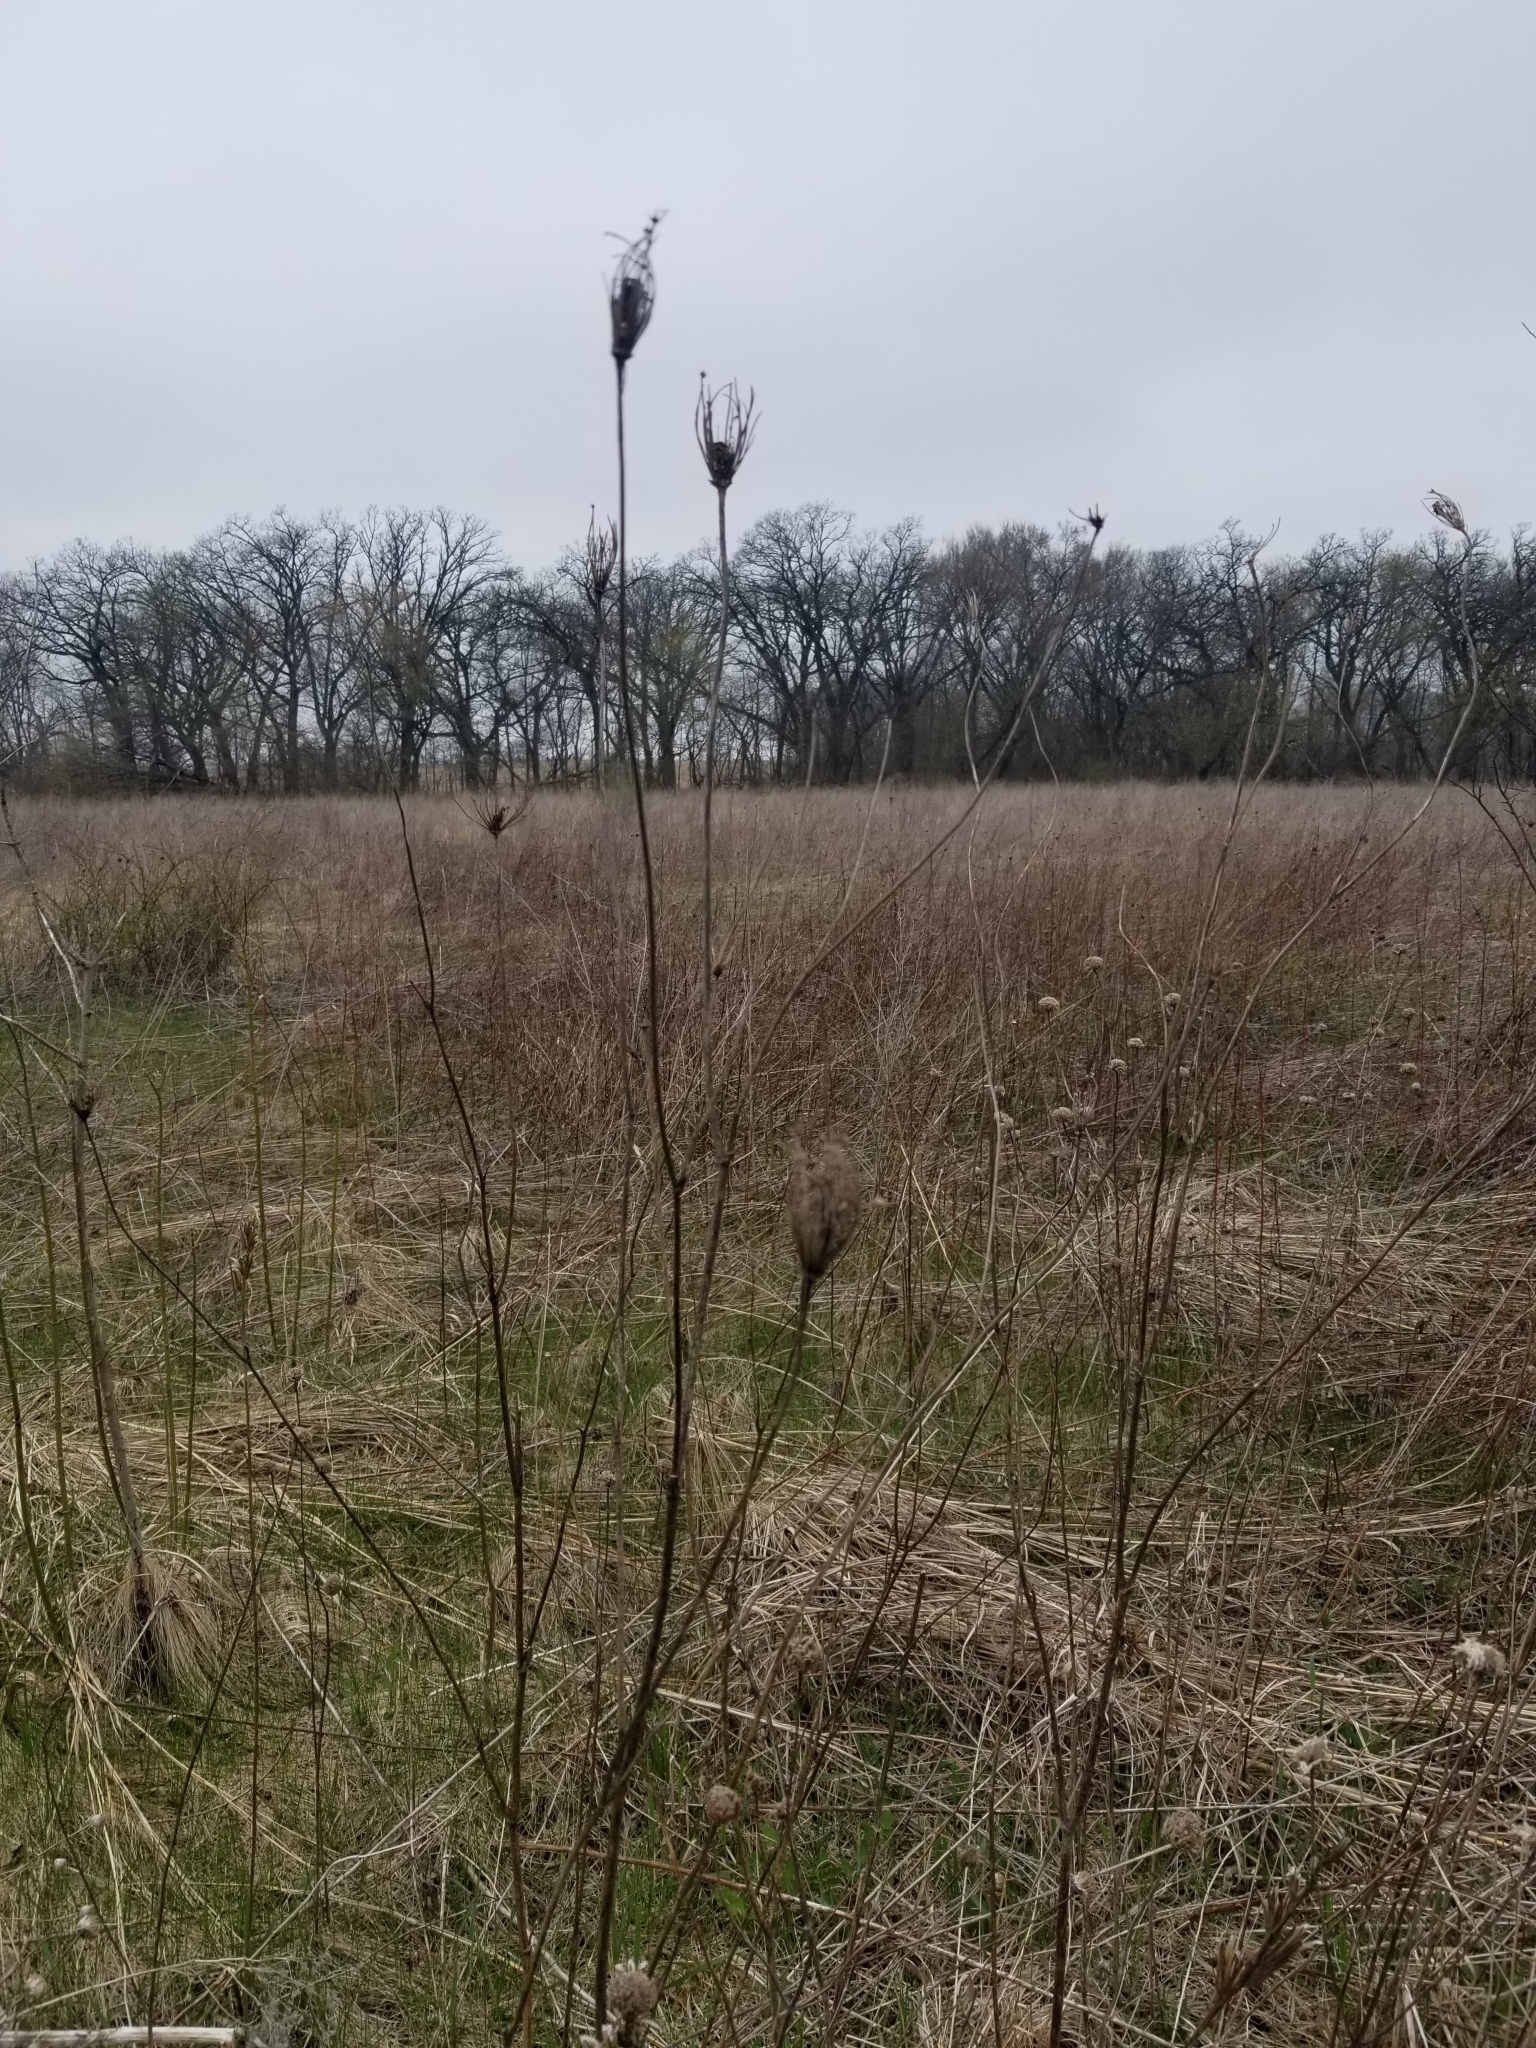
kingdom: Plantae
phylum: Tracheophyta
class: Magnoliopsida
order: Apiales
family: Apiaceae
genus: Daucus
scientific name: Daucus carota
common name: Wild carrot
